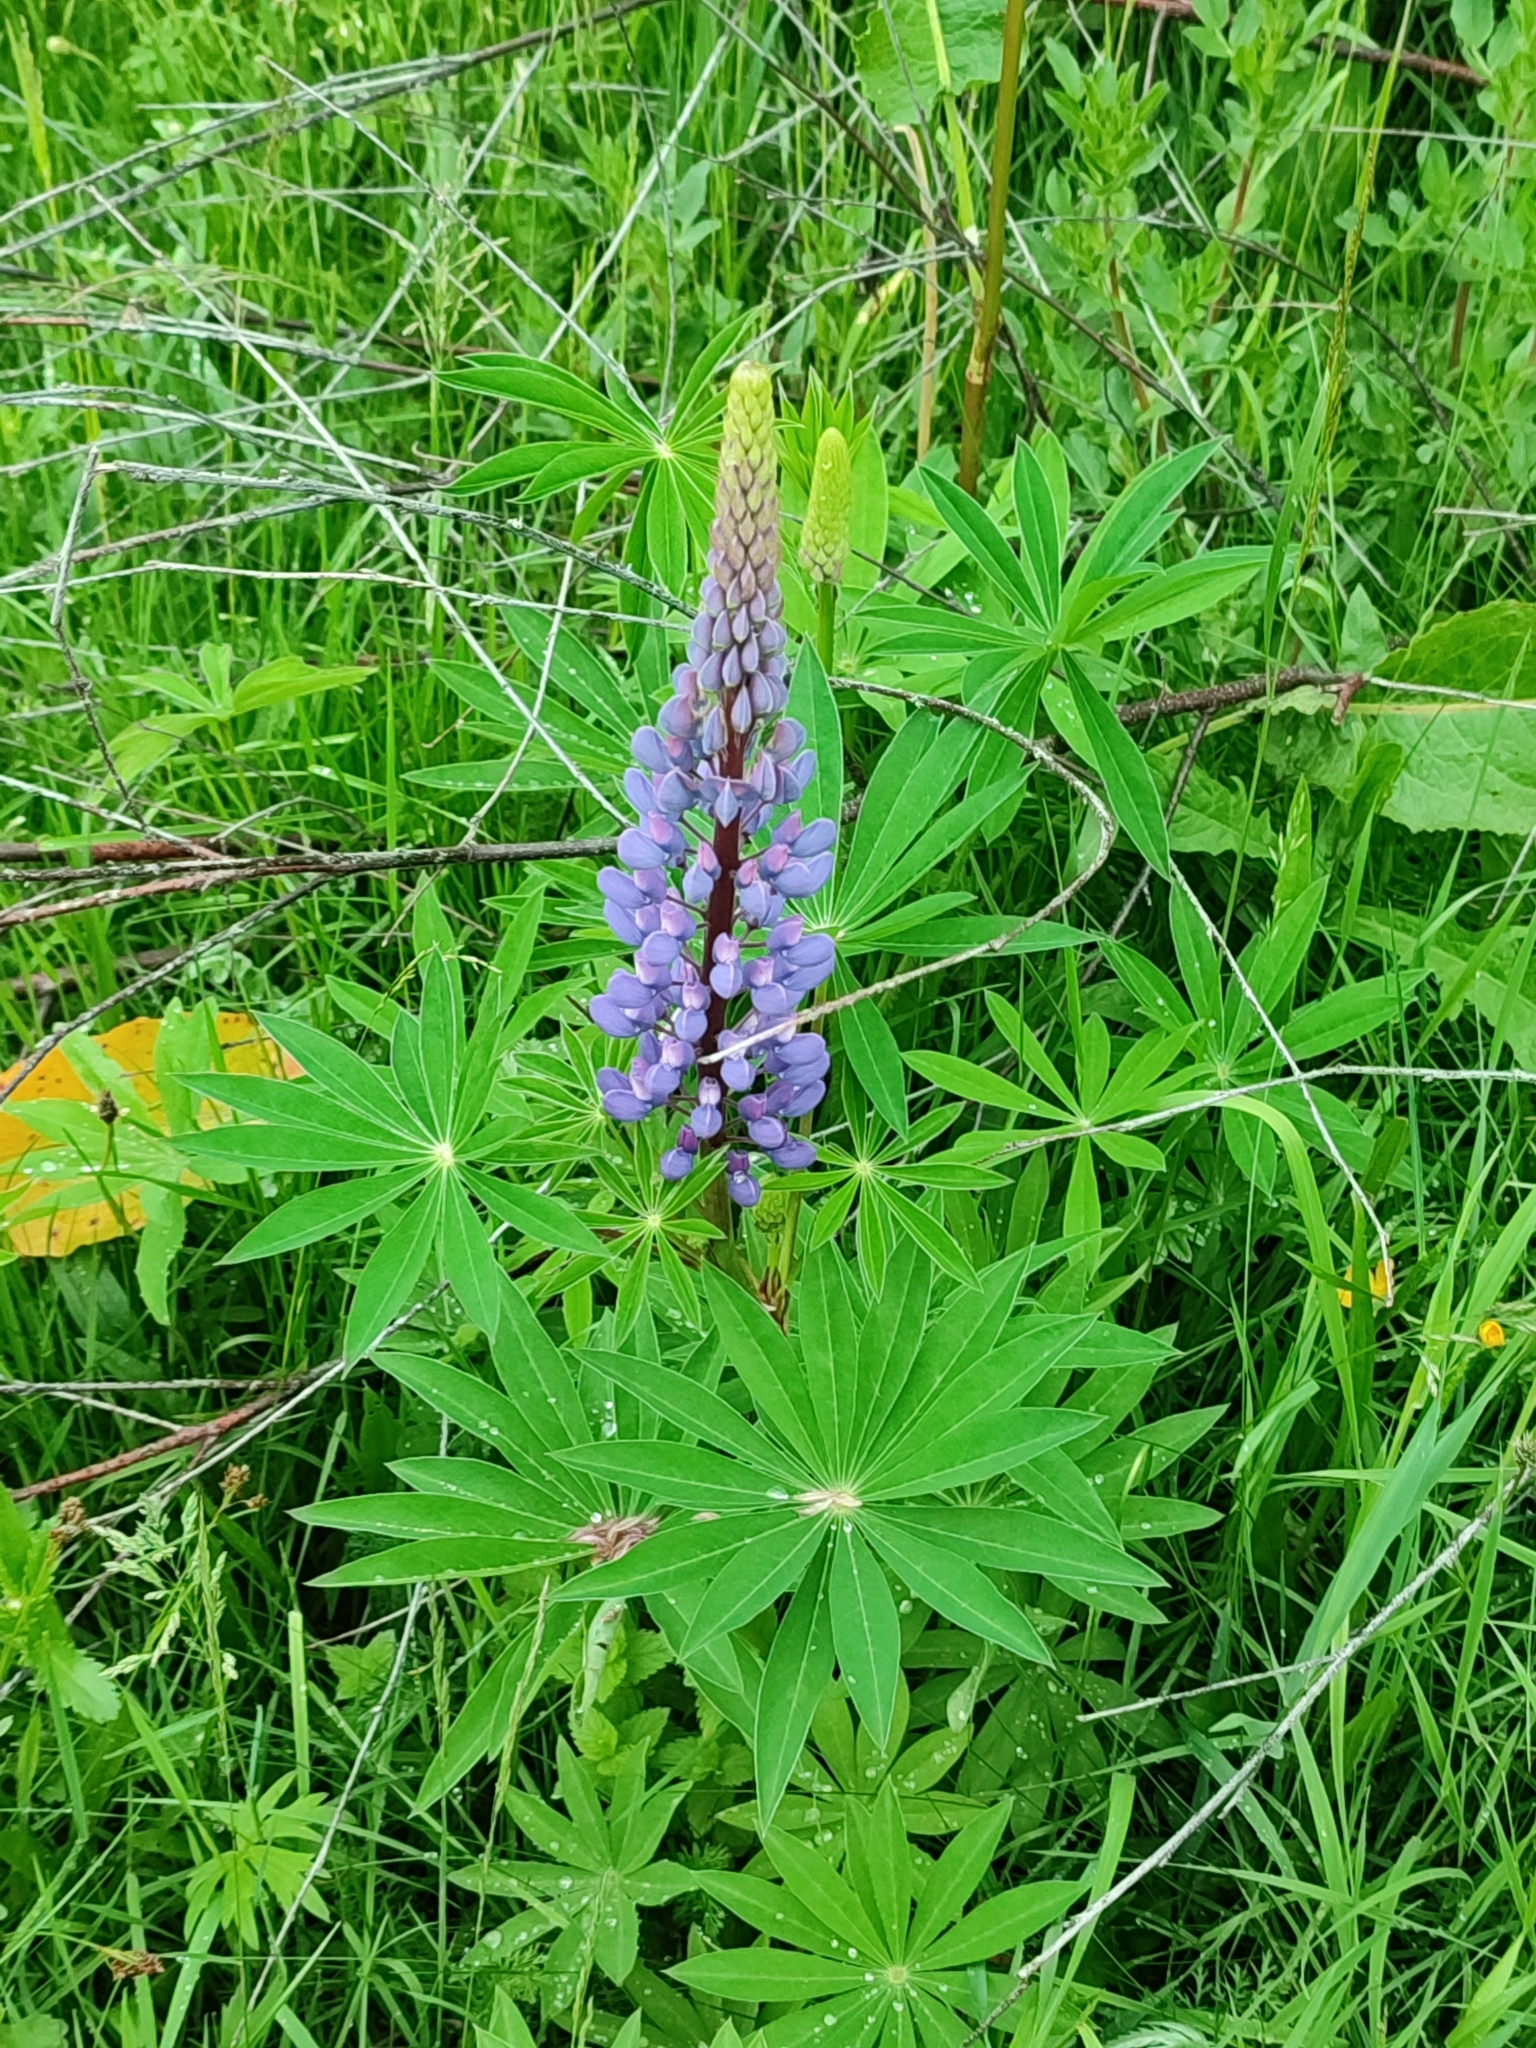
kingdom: Plantae
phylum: Tracheophyta
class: Magnoliopsida
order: Fabales
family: Fabaceae
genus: Lupinus
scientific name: Lupinus polyphyllus
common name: Garden lupin
